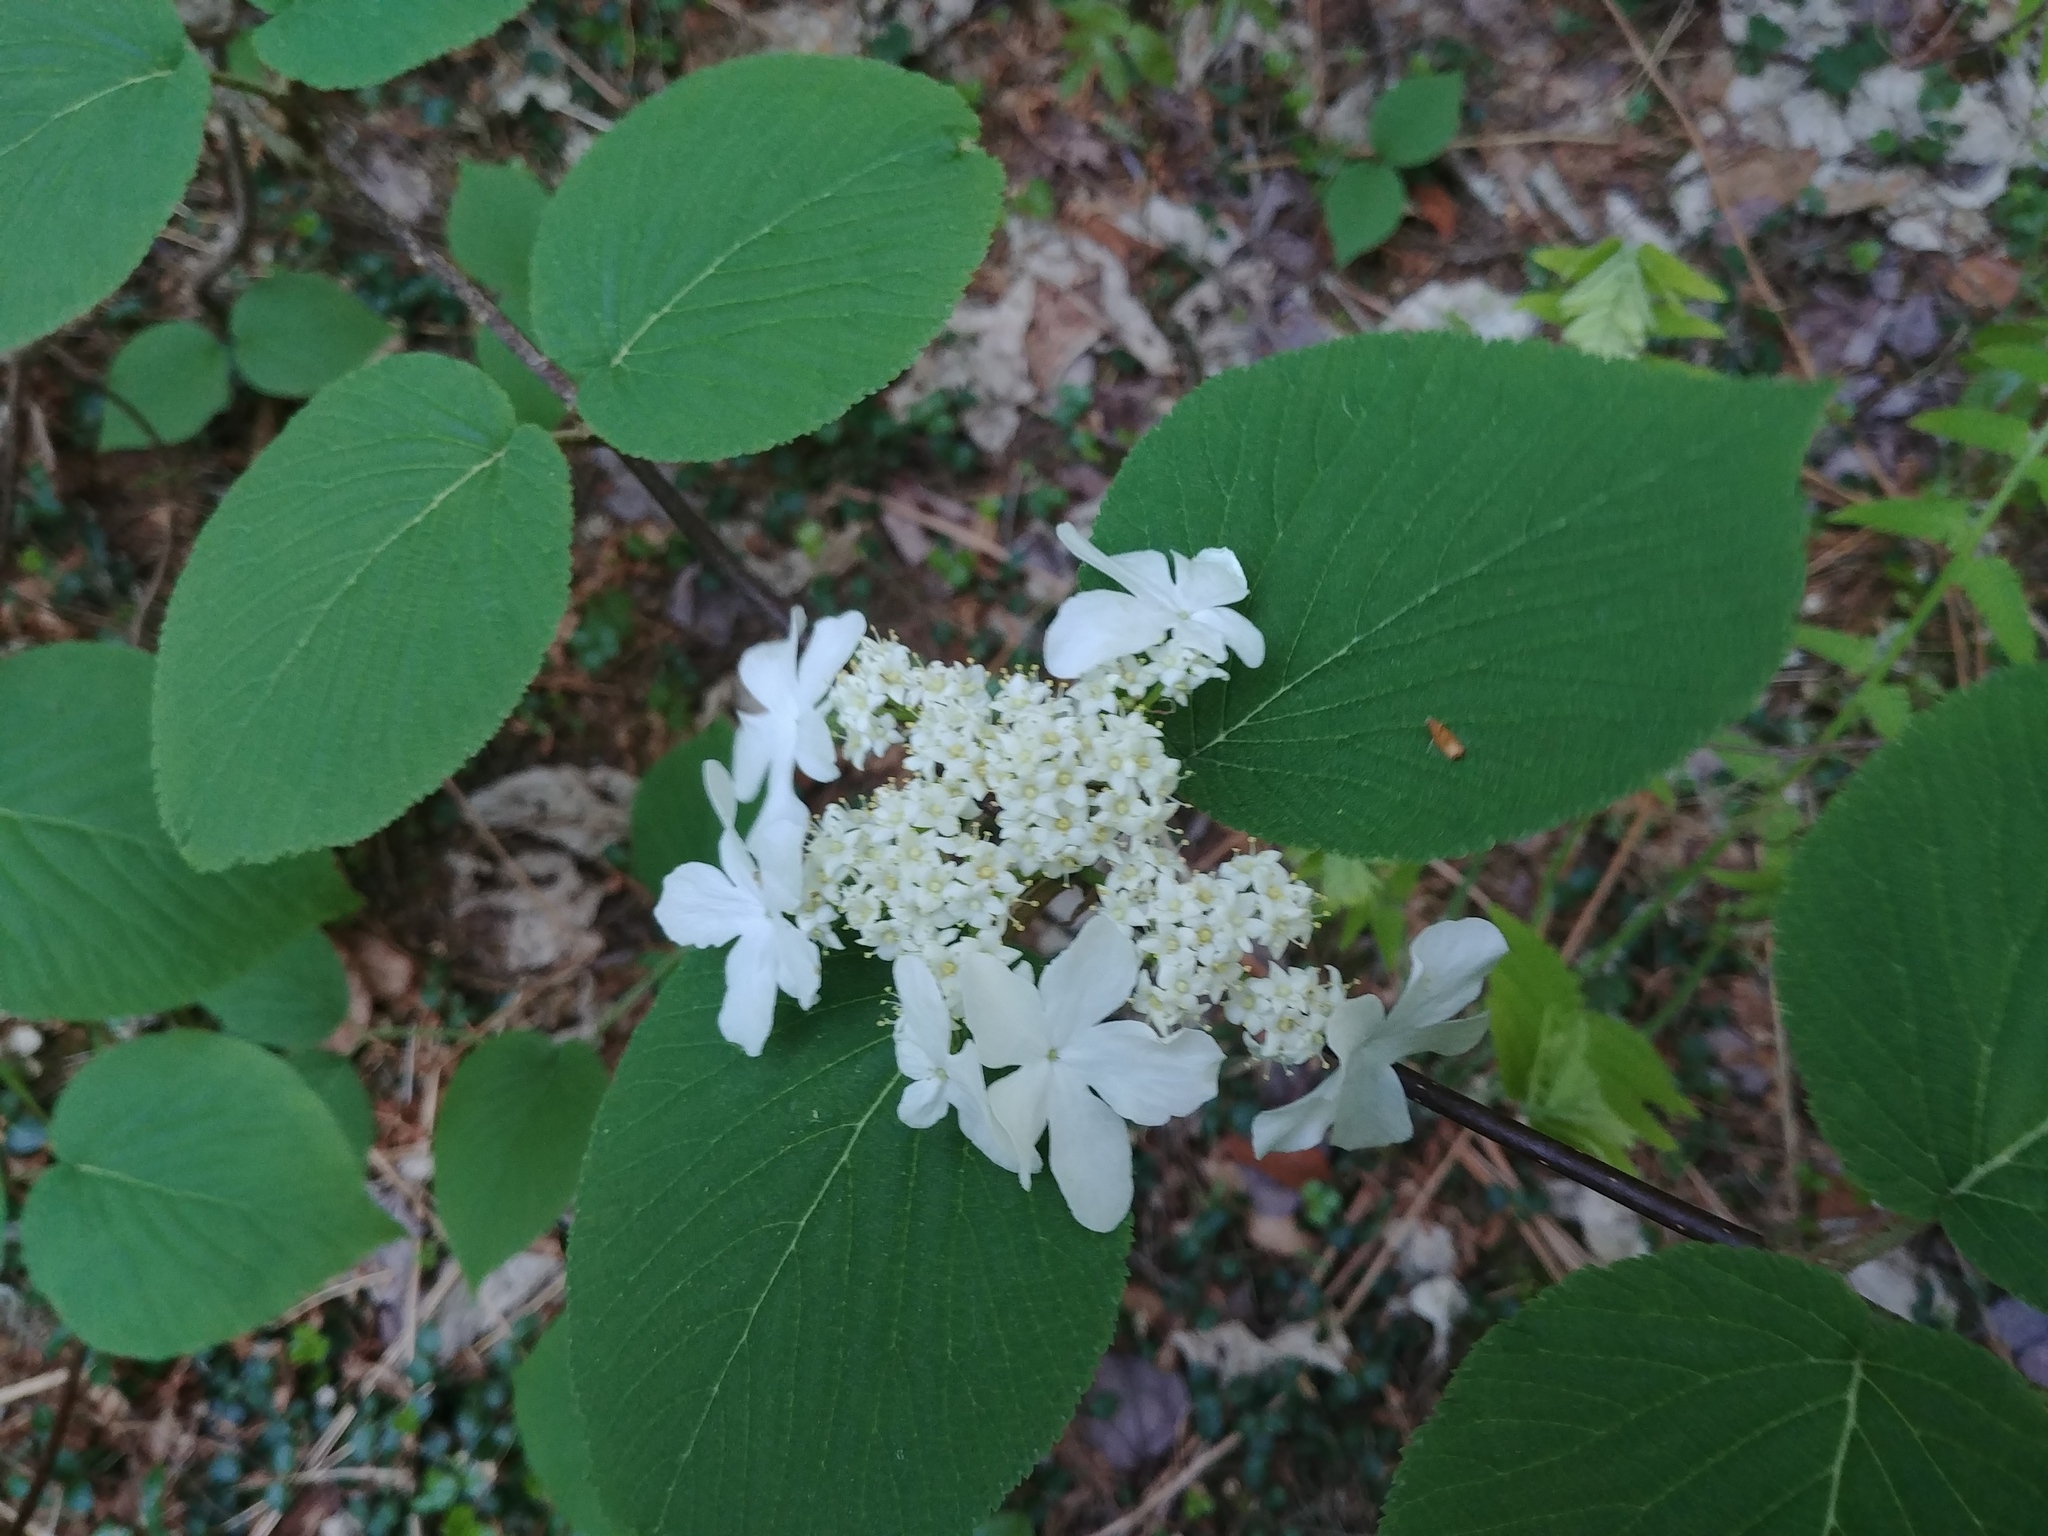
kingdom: Plantae
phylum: Tracheophyta
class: Magnoliopsida
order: Dipsacales
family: Viburnaceae
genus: Viburnum
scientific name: Viburnum lantanoides
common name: Hobblebush
